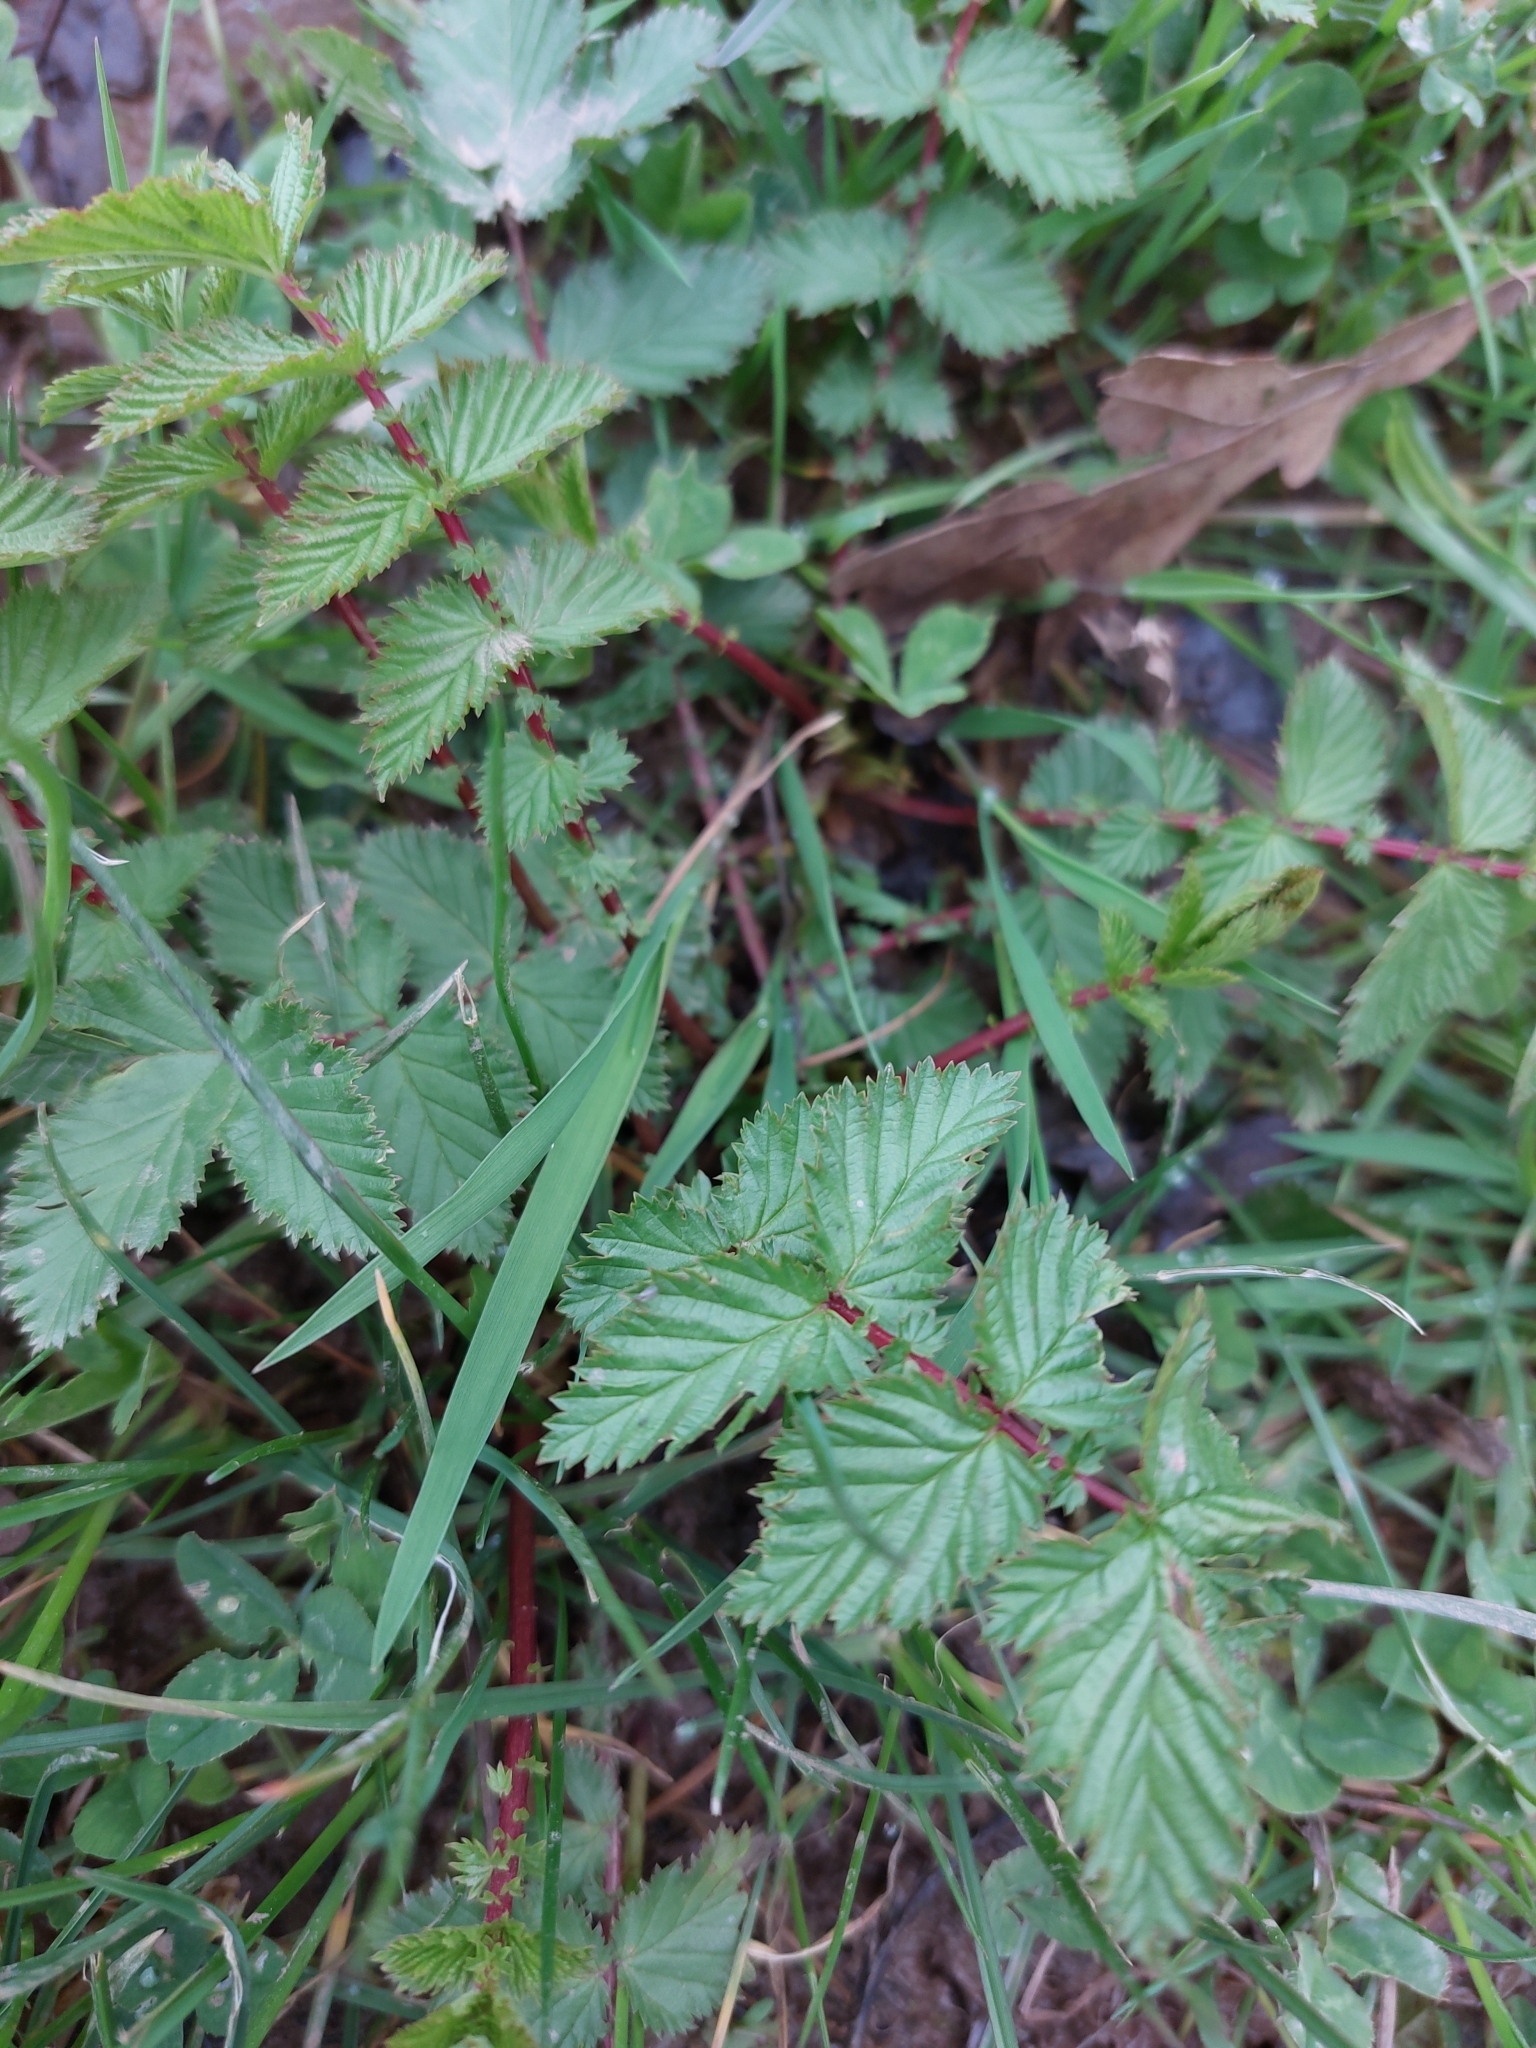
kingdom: Plantae
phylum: Tracheophyta
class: Magnoliopsida
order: Rosales
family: Rosaceae
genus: Filipendula
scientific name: Filipendula ulmaria
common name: Meadowsweet
